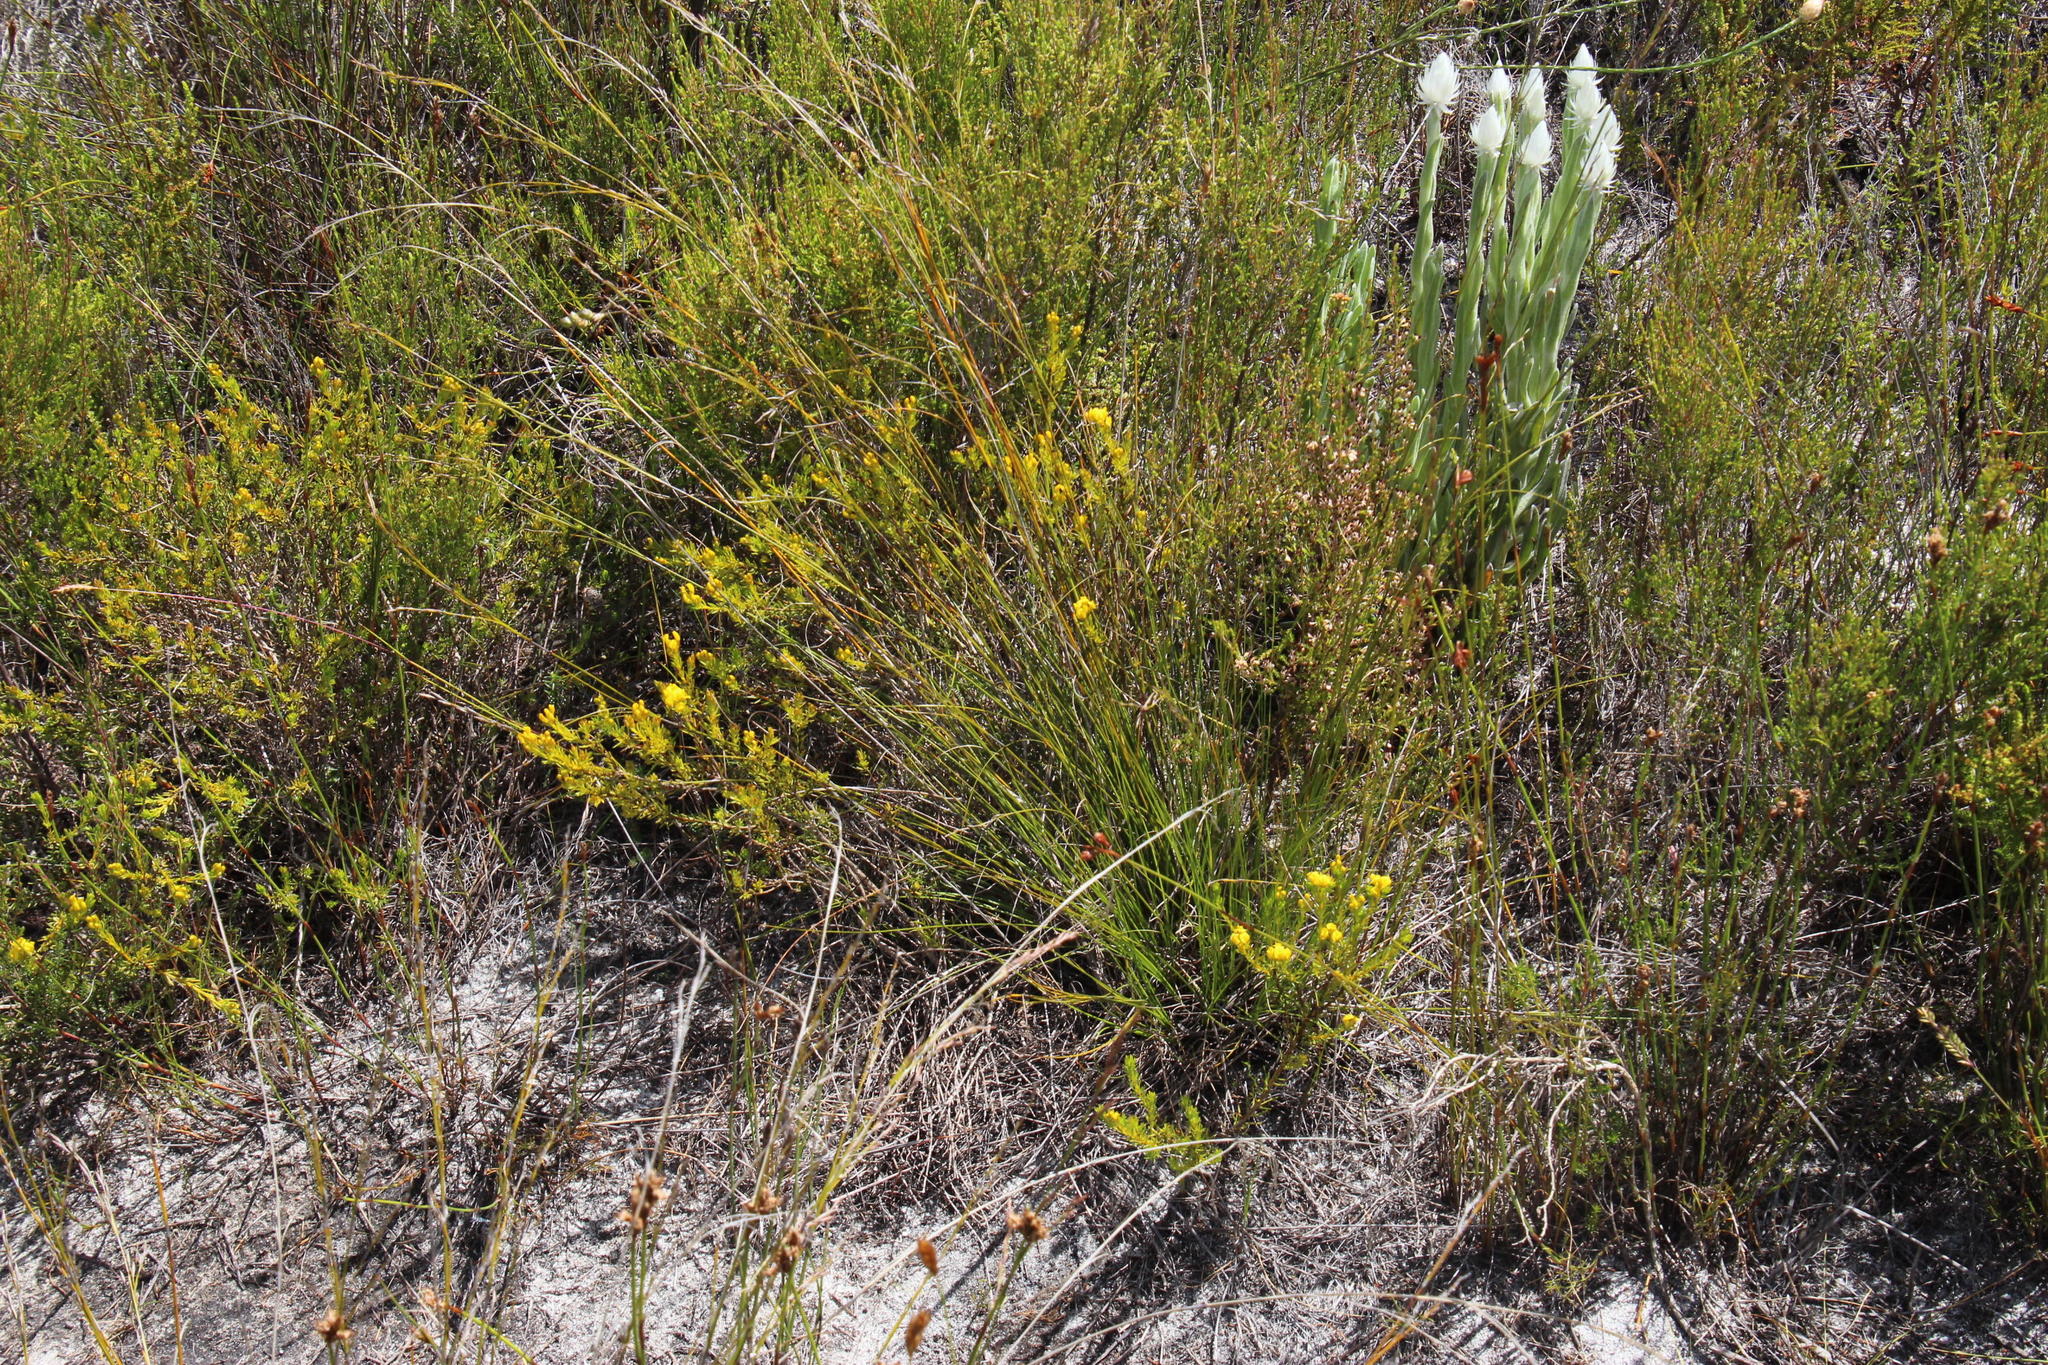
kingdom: Plantae
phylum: Tracheophyta
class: Magnoliopsida
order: Fabales
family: Fabaceae
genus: Aspalathus
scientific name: Aspalathus callosa
